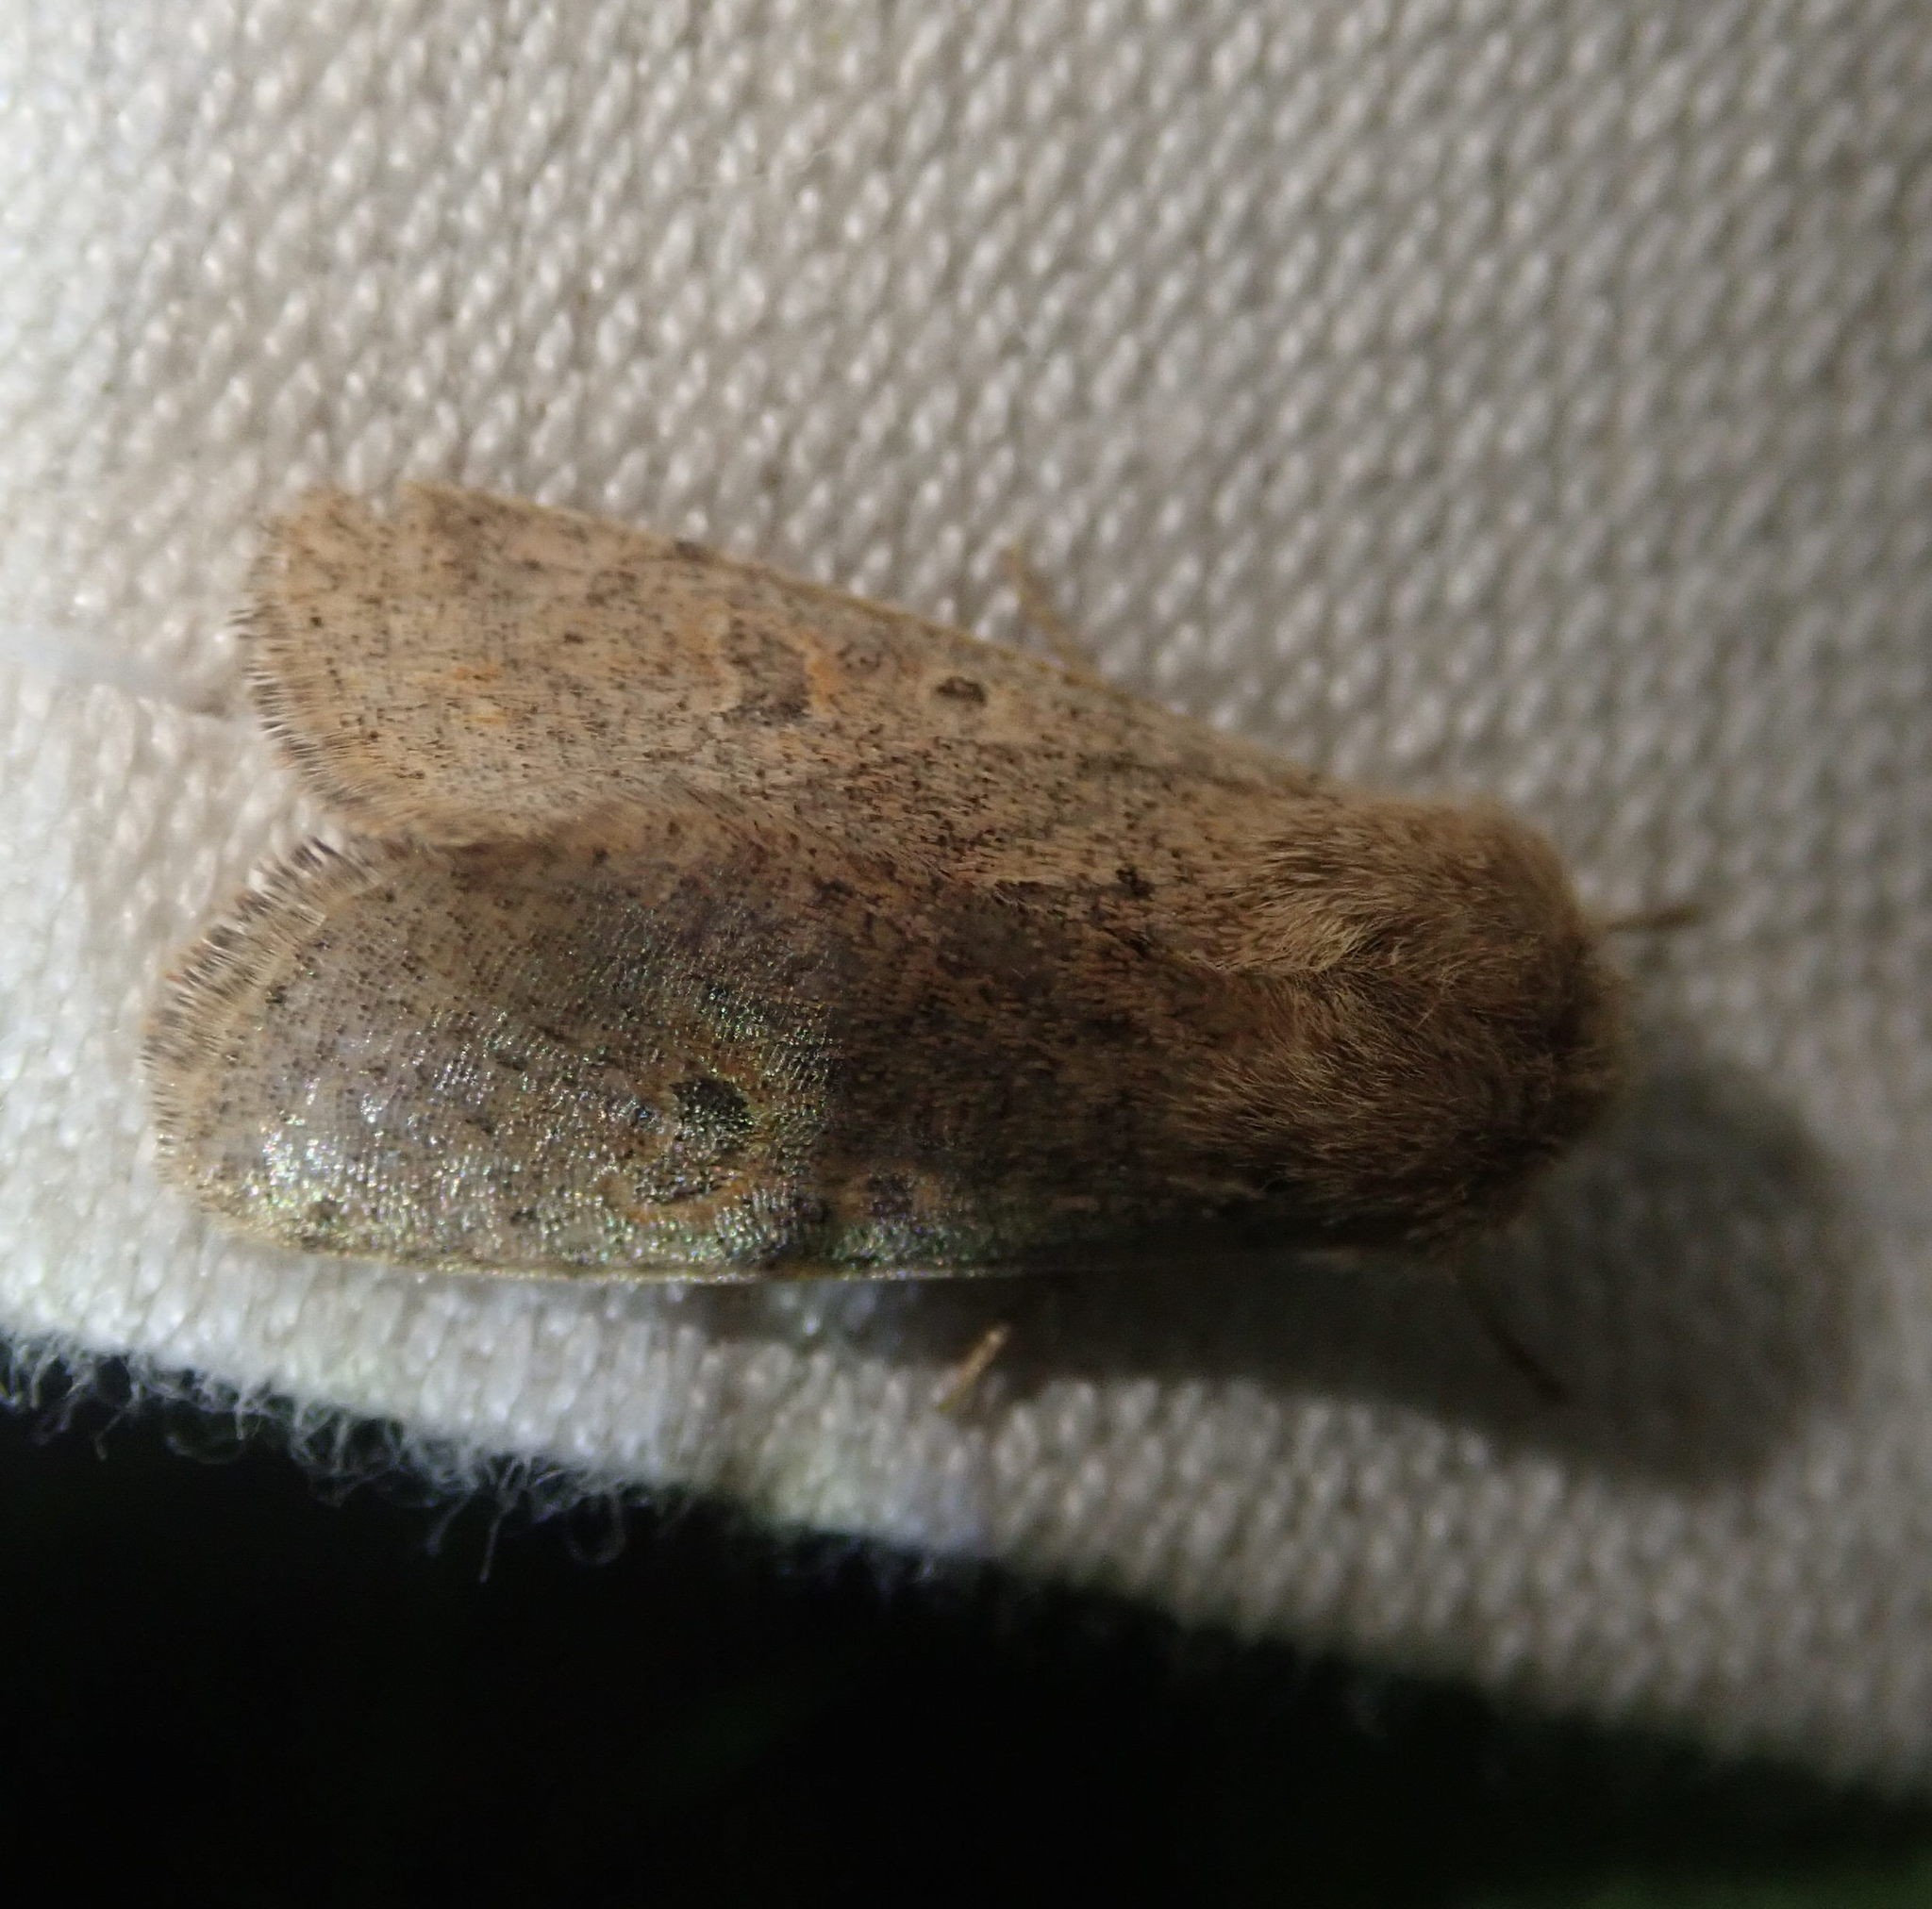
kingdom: Animalia
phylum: Arthropoda
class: Insecta
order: Lepidoptera
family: Noctuidae
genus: Orthosia
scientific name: Orthosia cruda
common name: Small quaker
